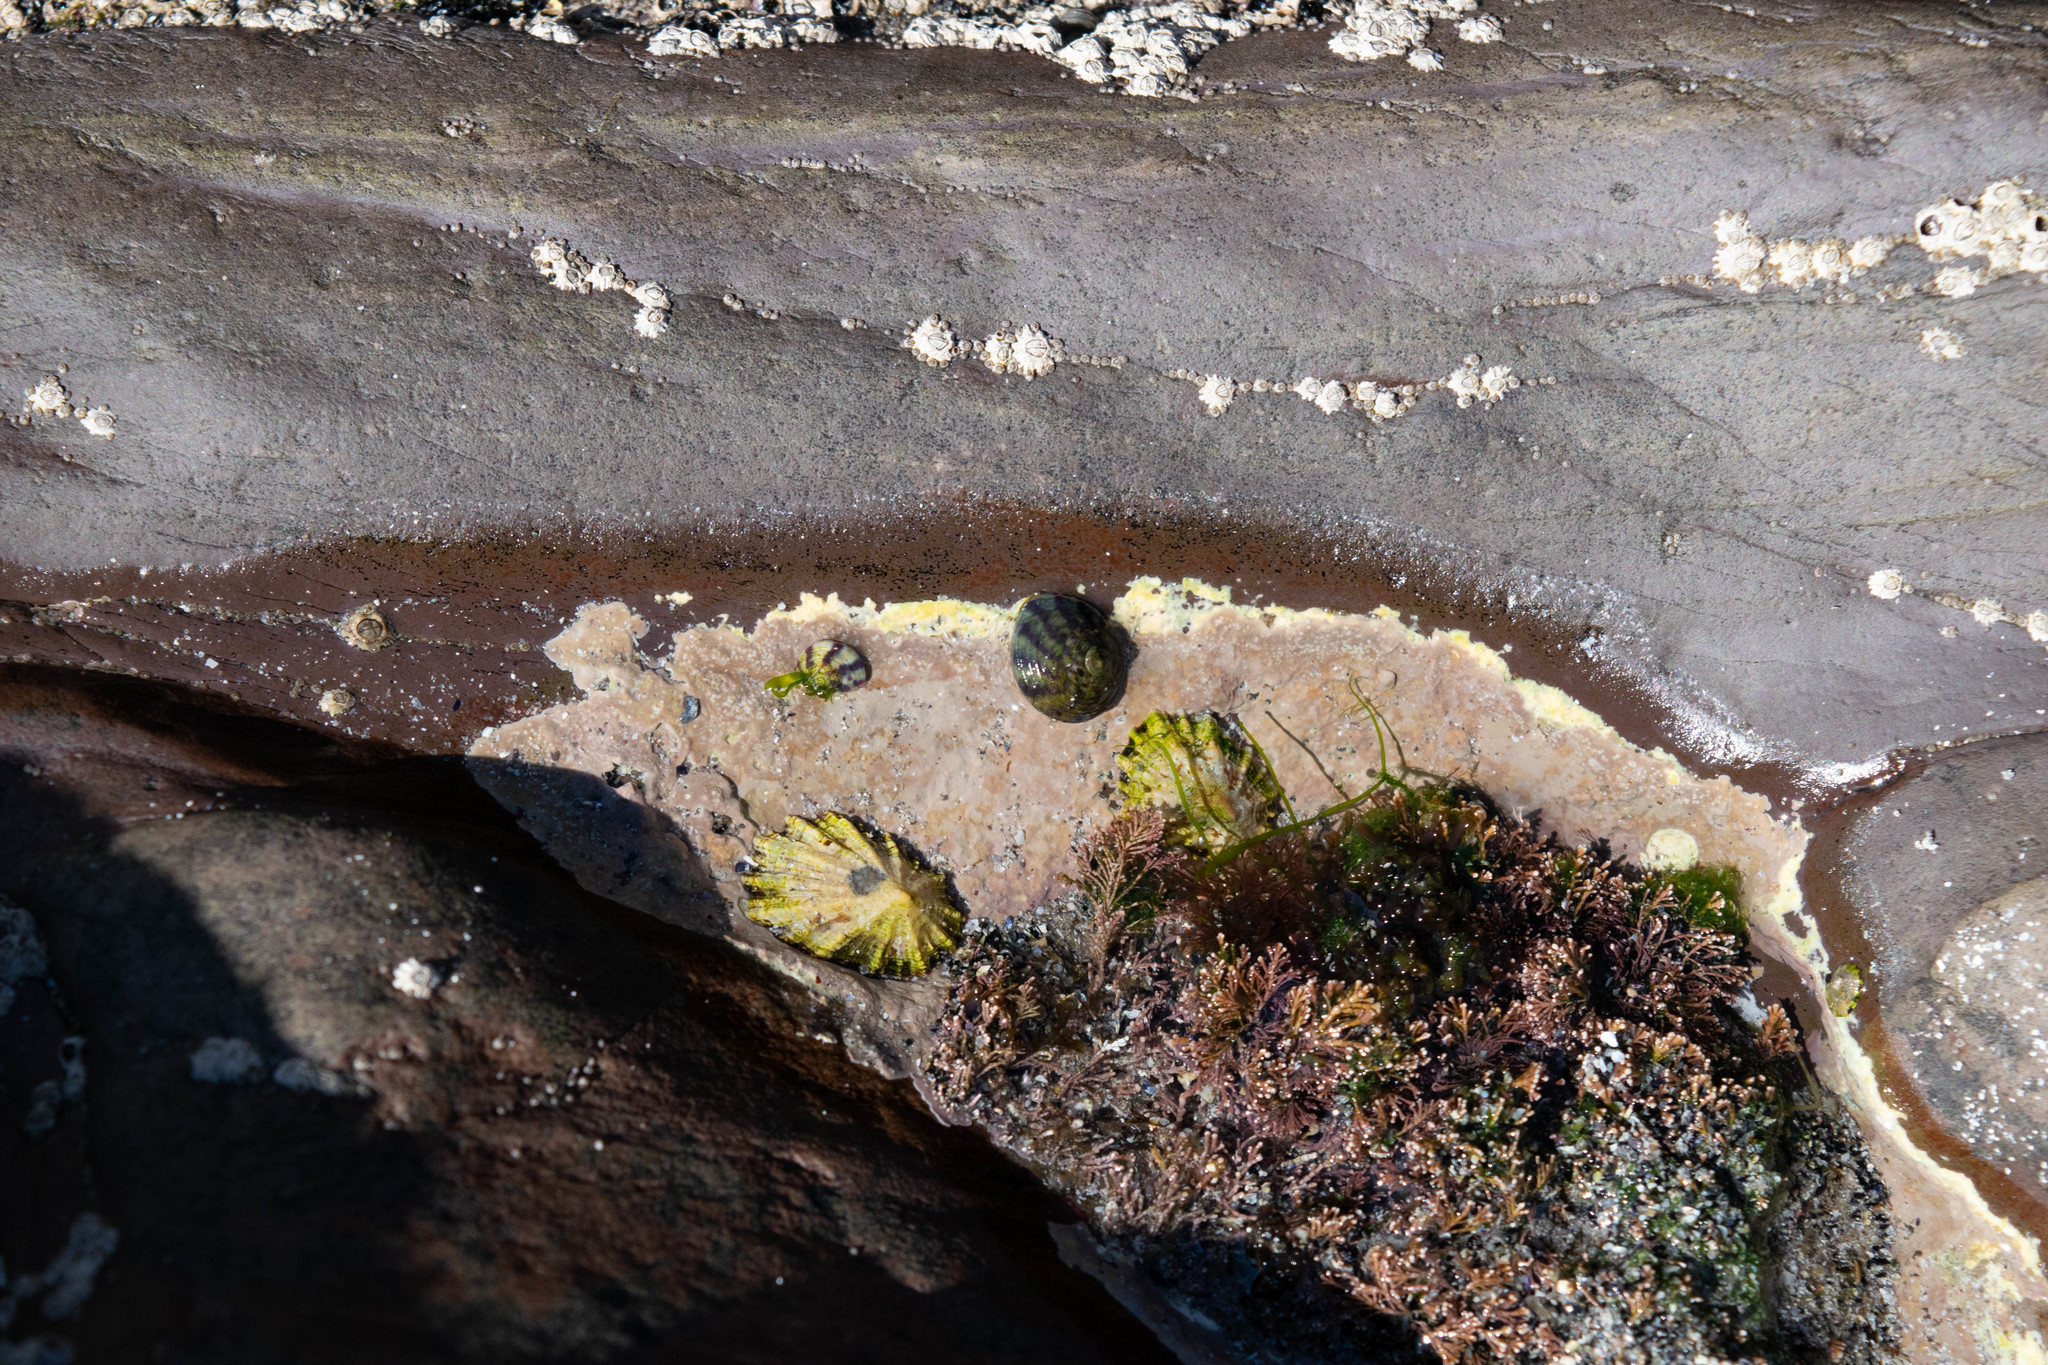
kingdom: Animalia
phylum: Mollusca
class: Gastropoda
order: Trochida
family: Trochidae
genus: Steromphala
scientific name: Steromphala umbilicalis
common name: Flat top shell
